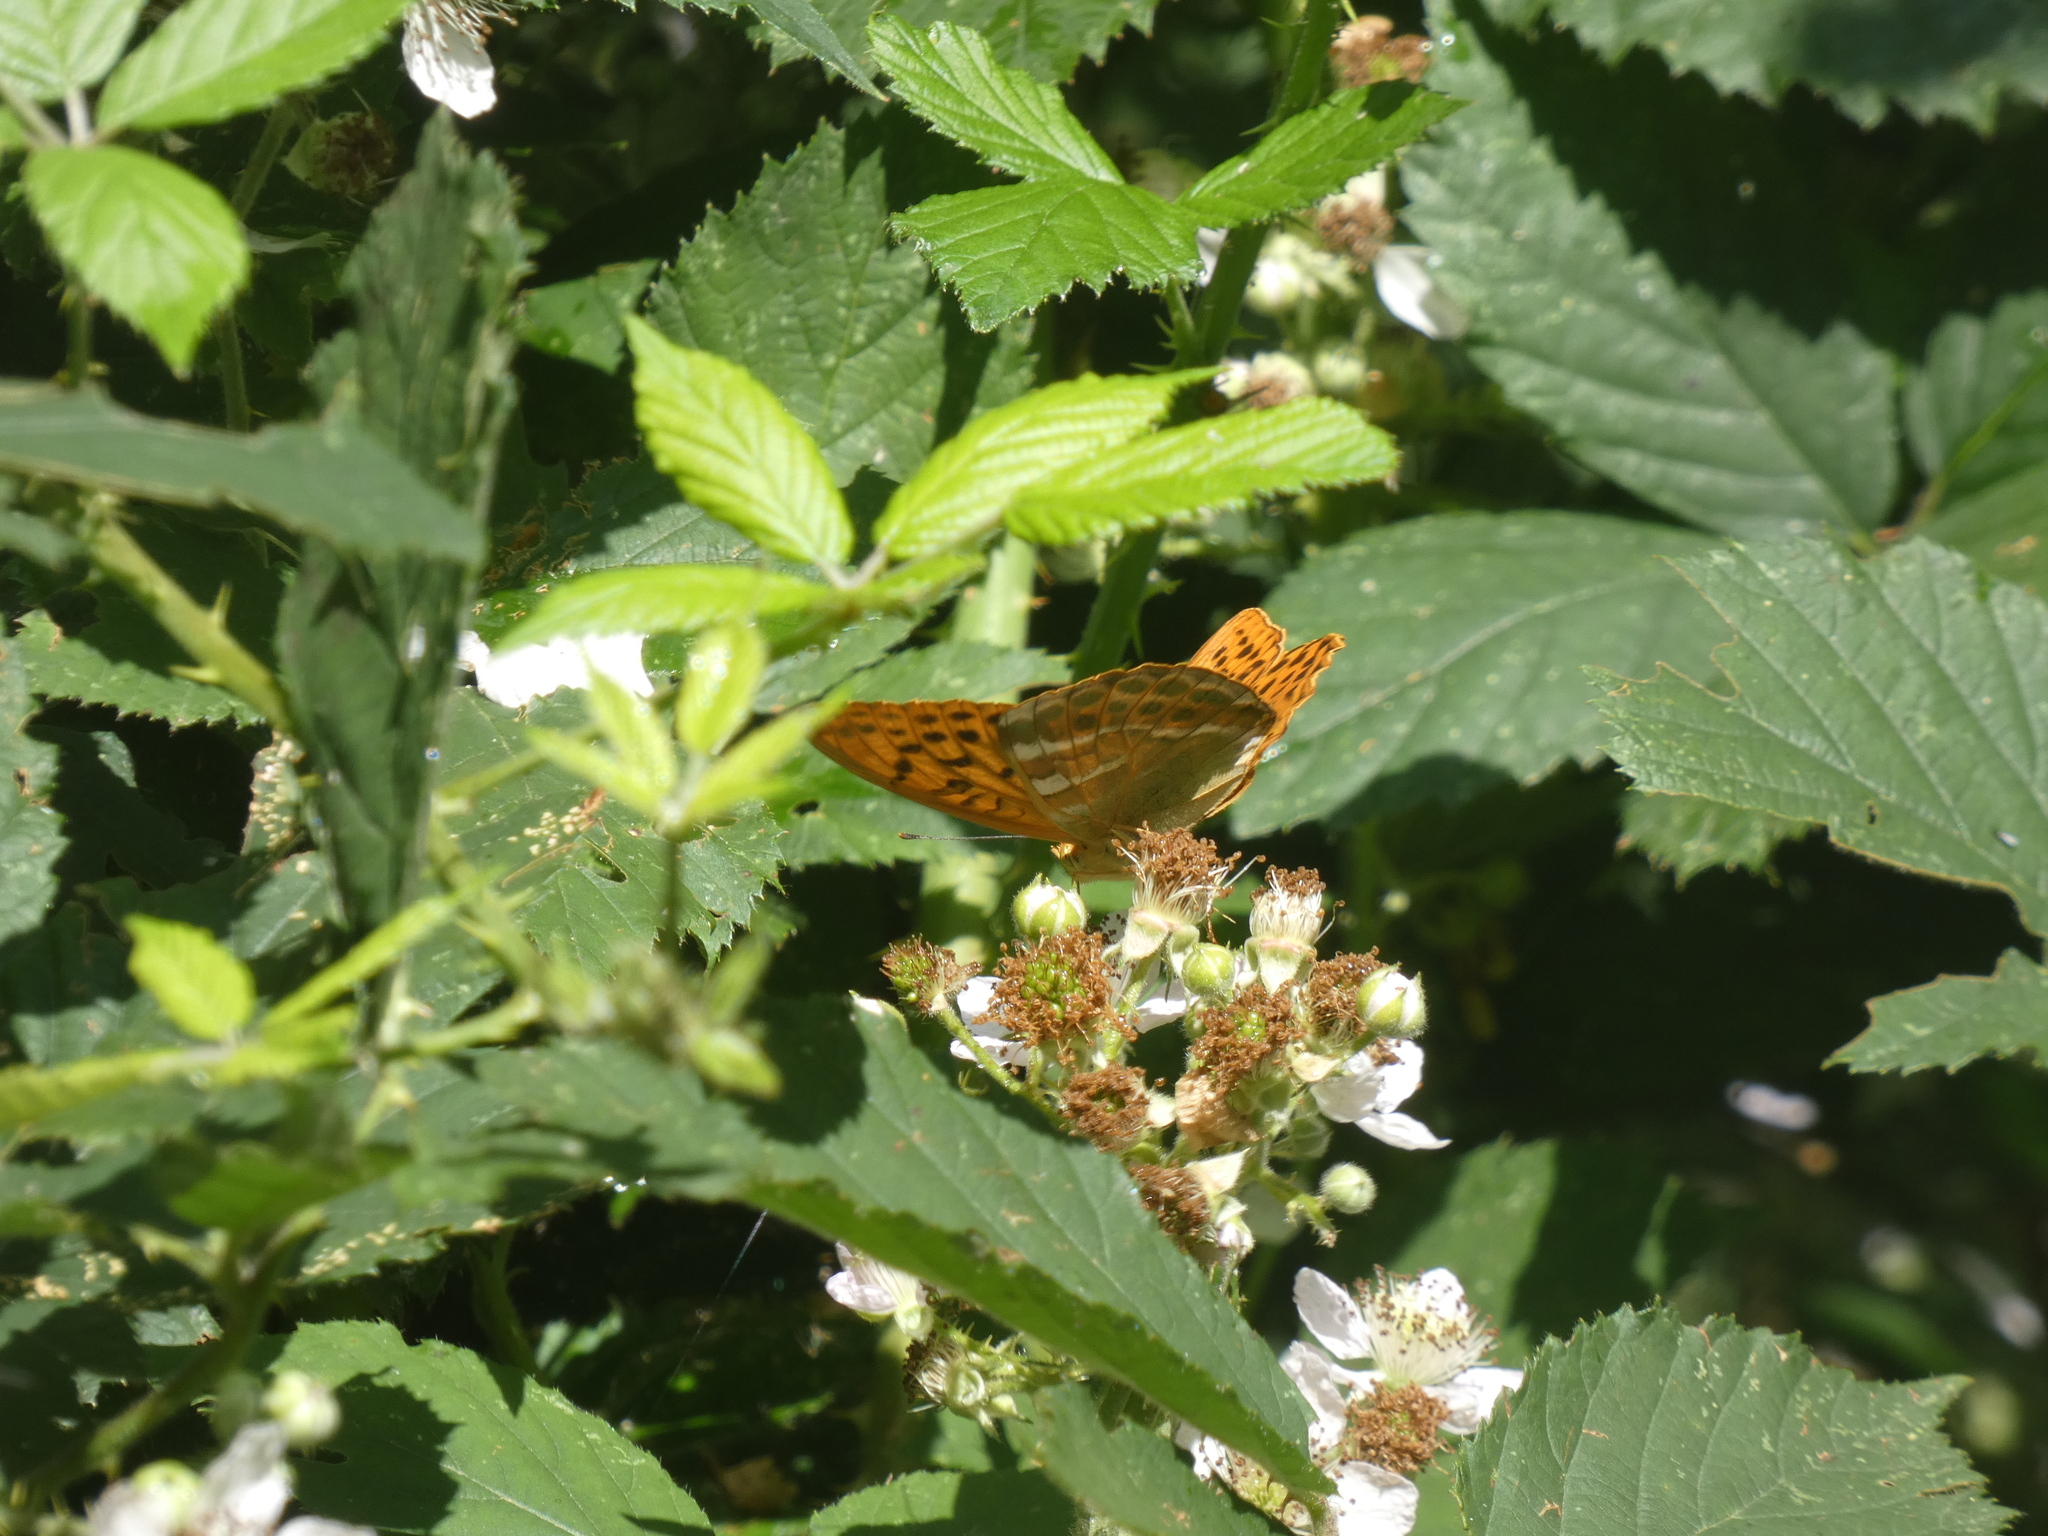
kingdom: Animalia
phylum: Arthropoda
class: Insecta
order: Lepidoptera
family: Nymphalidae
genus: Argynnis
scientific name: Argynnis paphia
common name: Silver-washed fritillary
